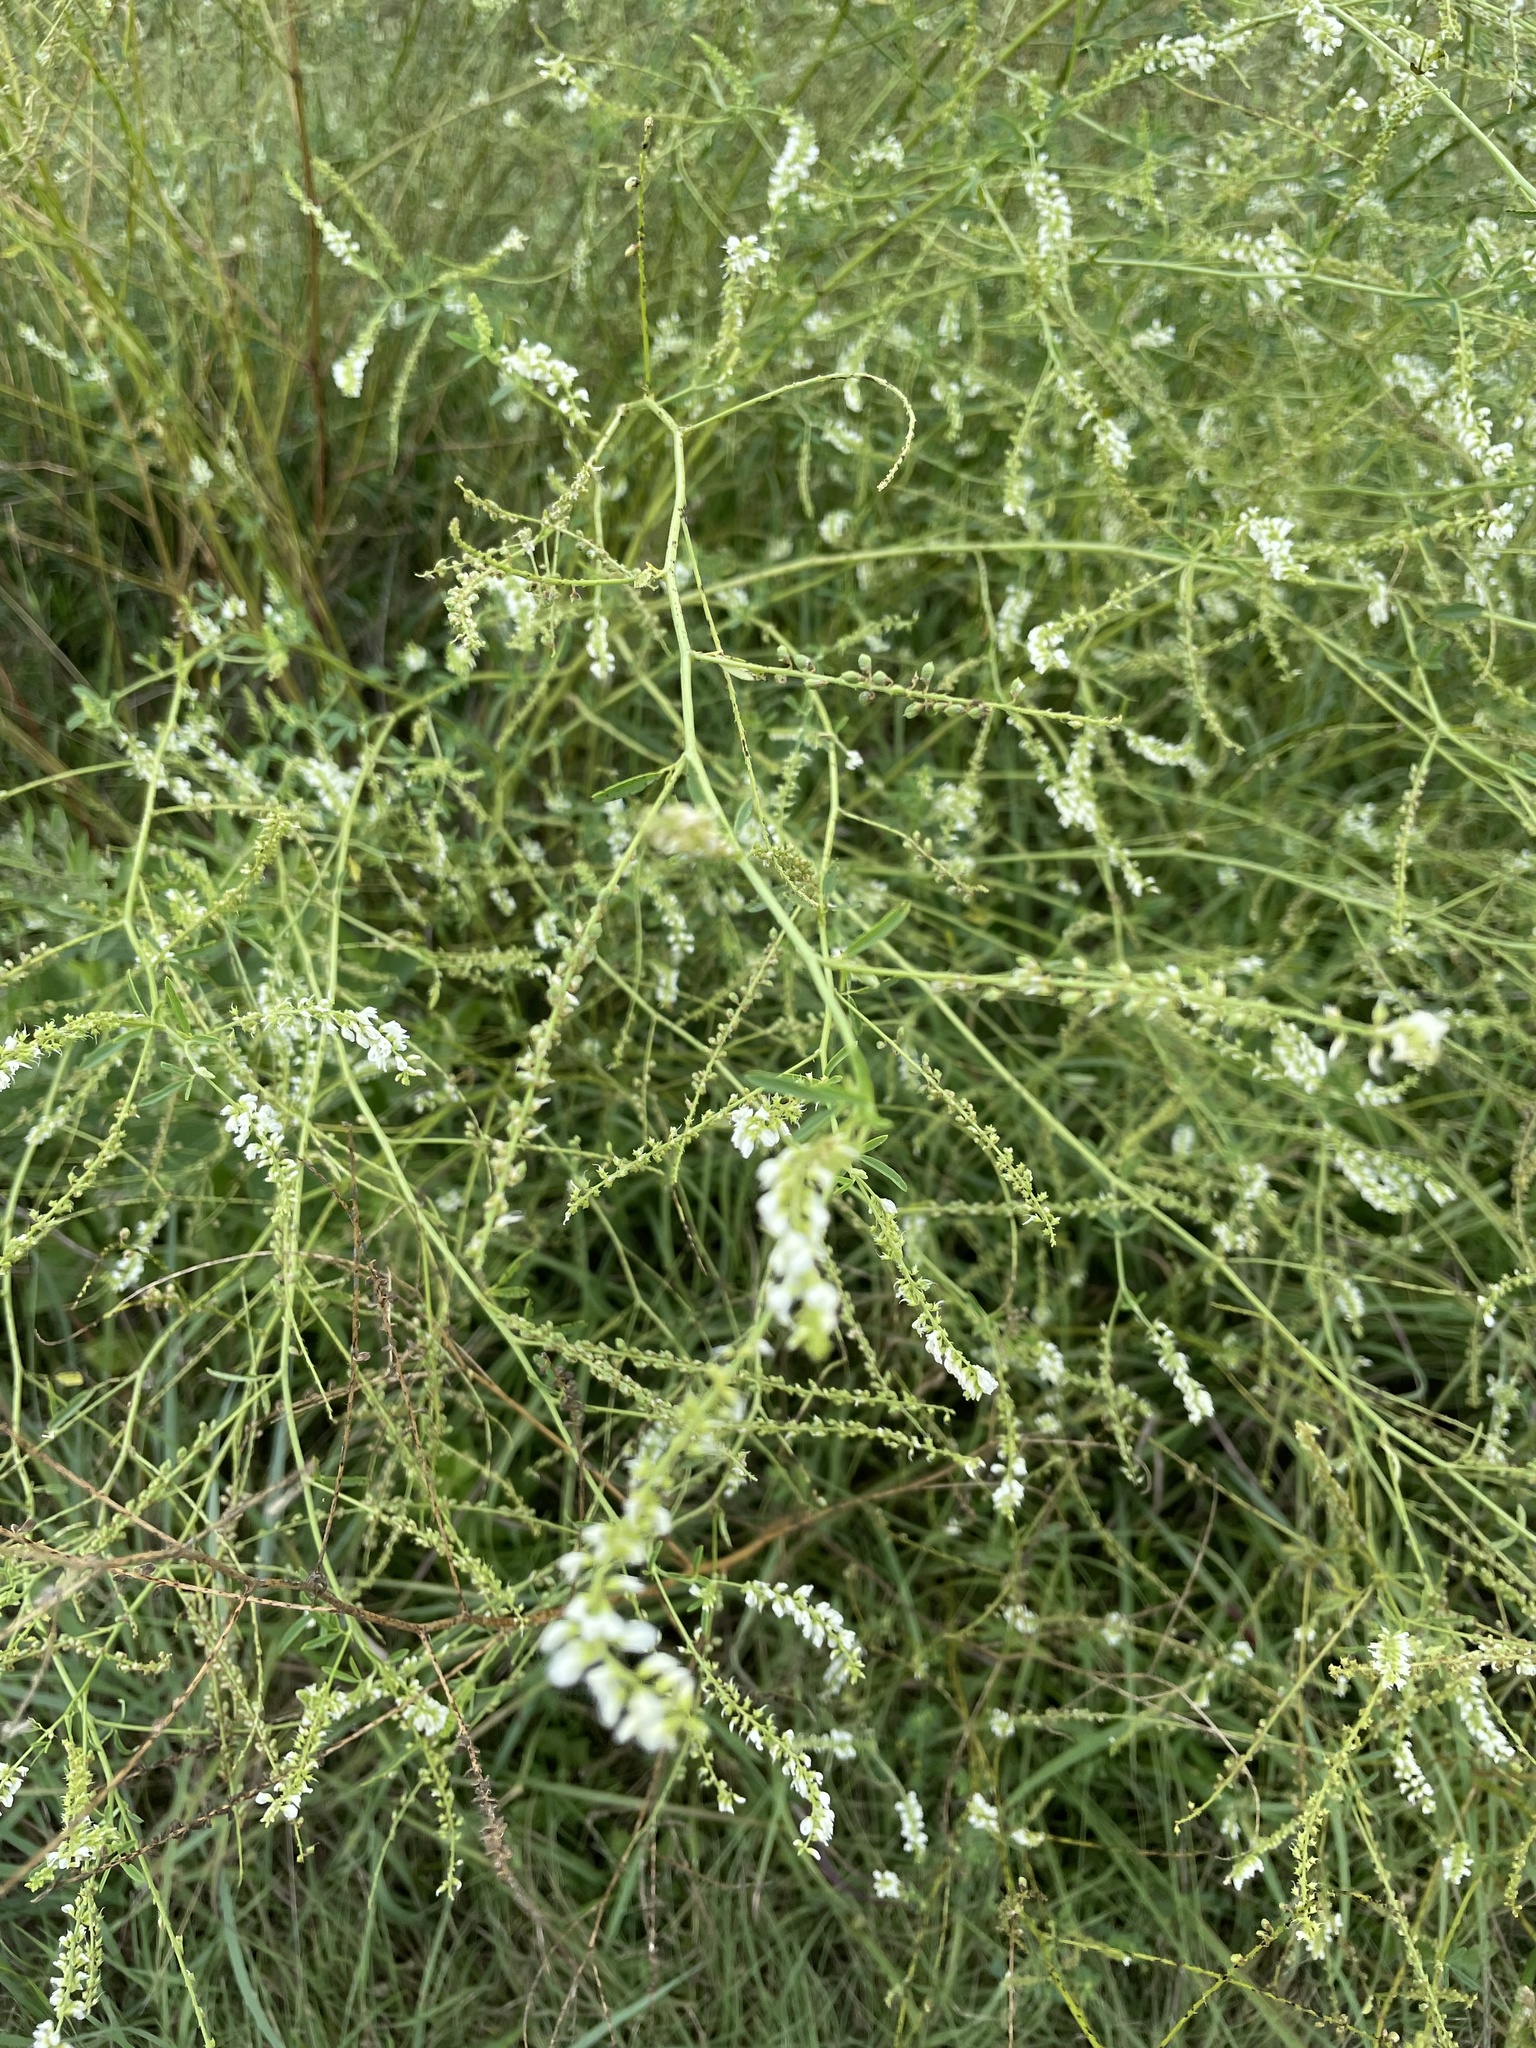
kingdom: Plantae
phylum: Tracheophyta
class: Magnoliopsida
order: Fabales
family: Fabaceae
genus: Melilotus
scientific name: Melilotus albus
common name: White melilot
